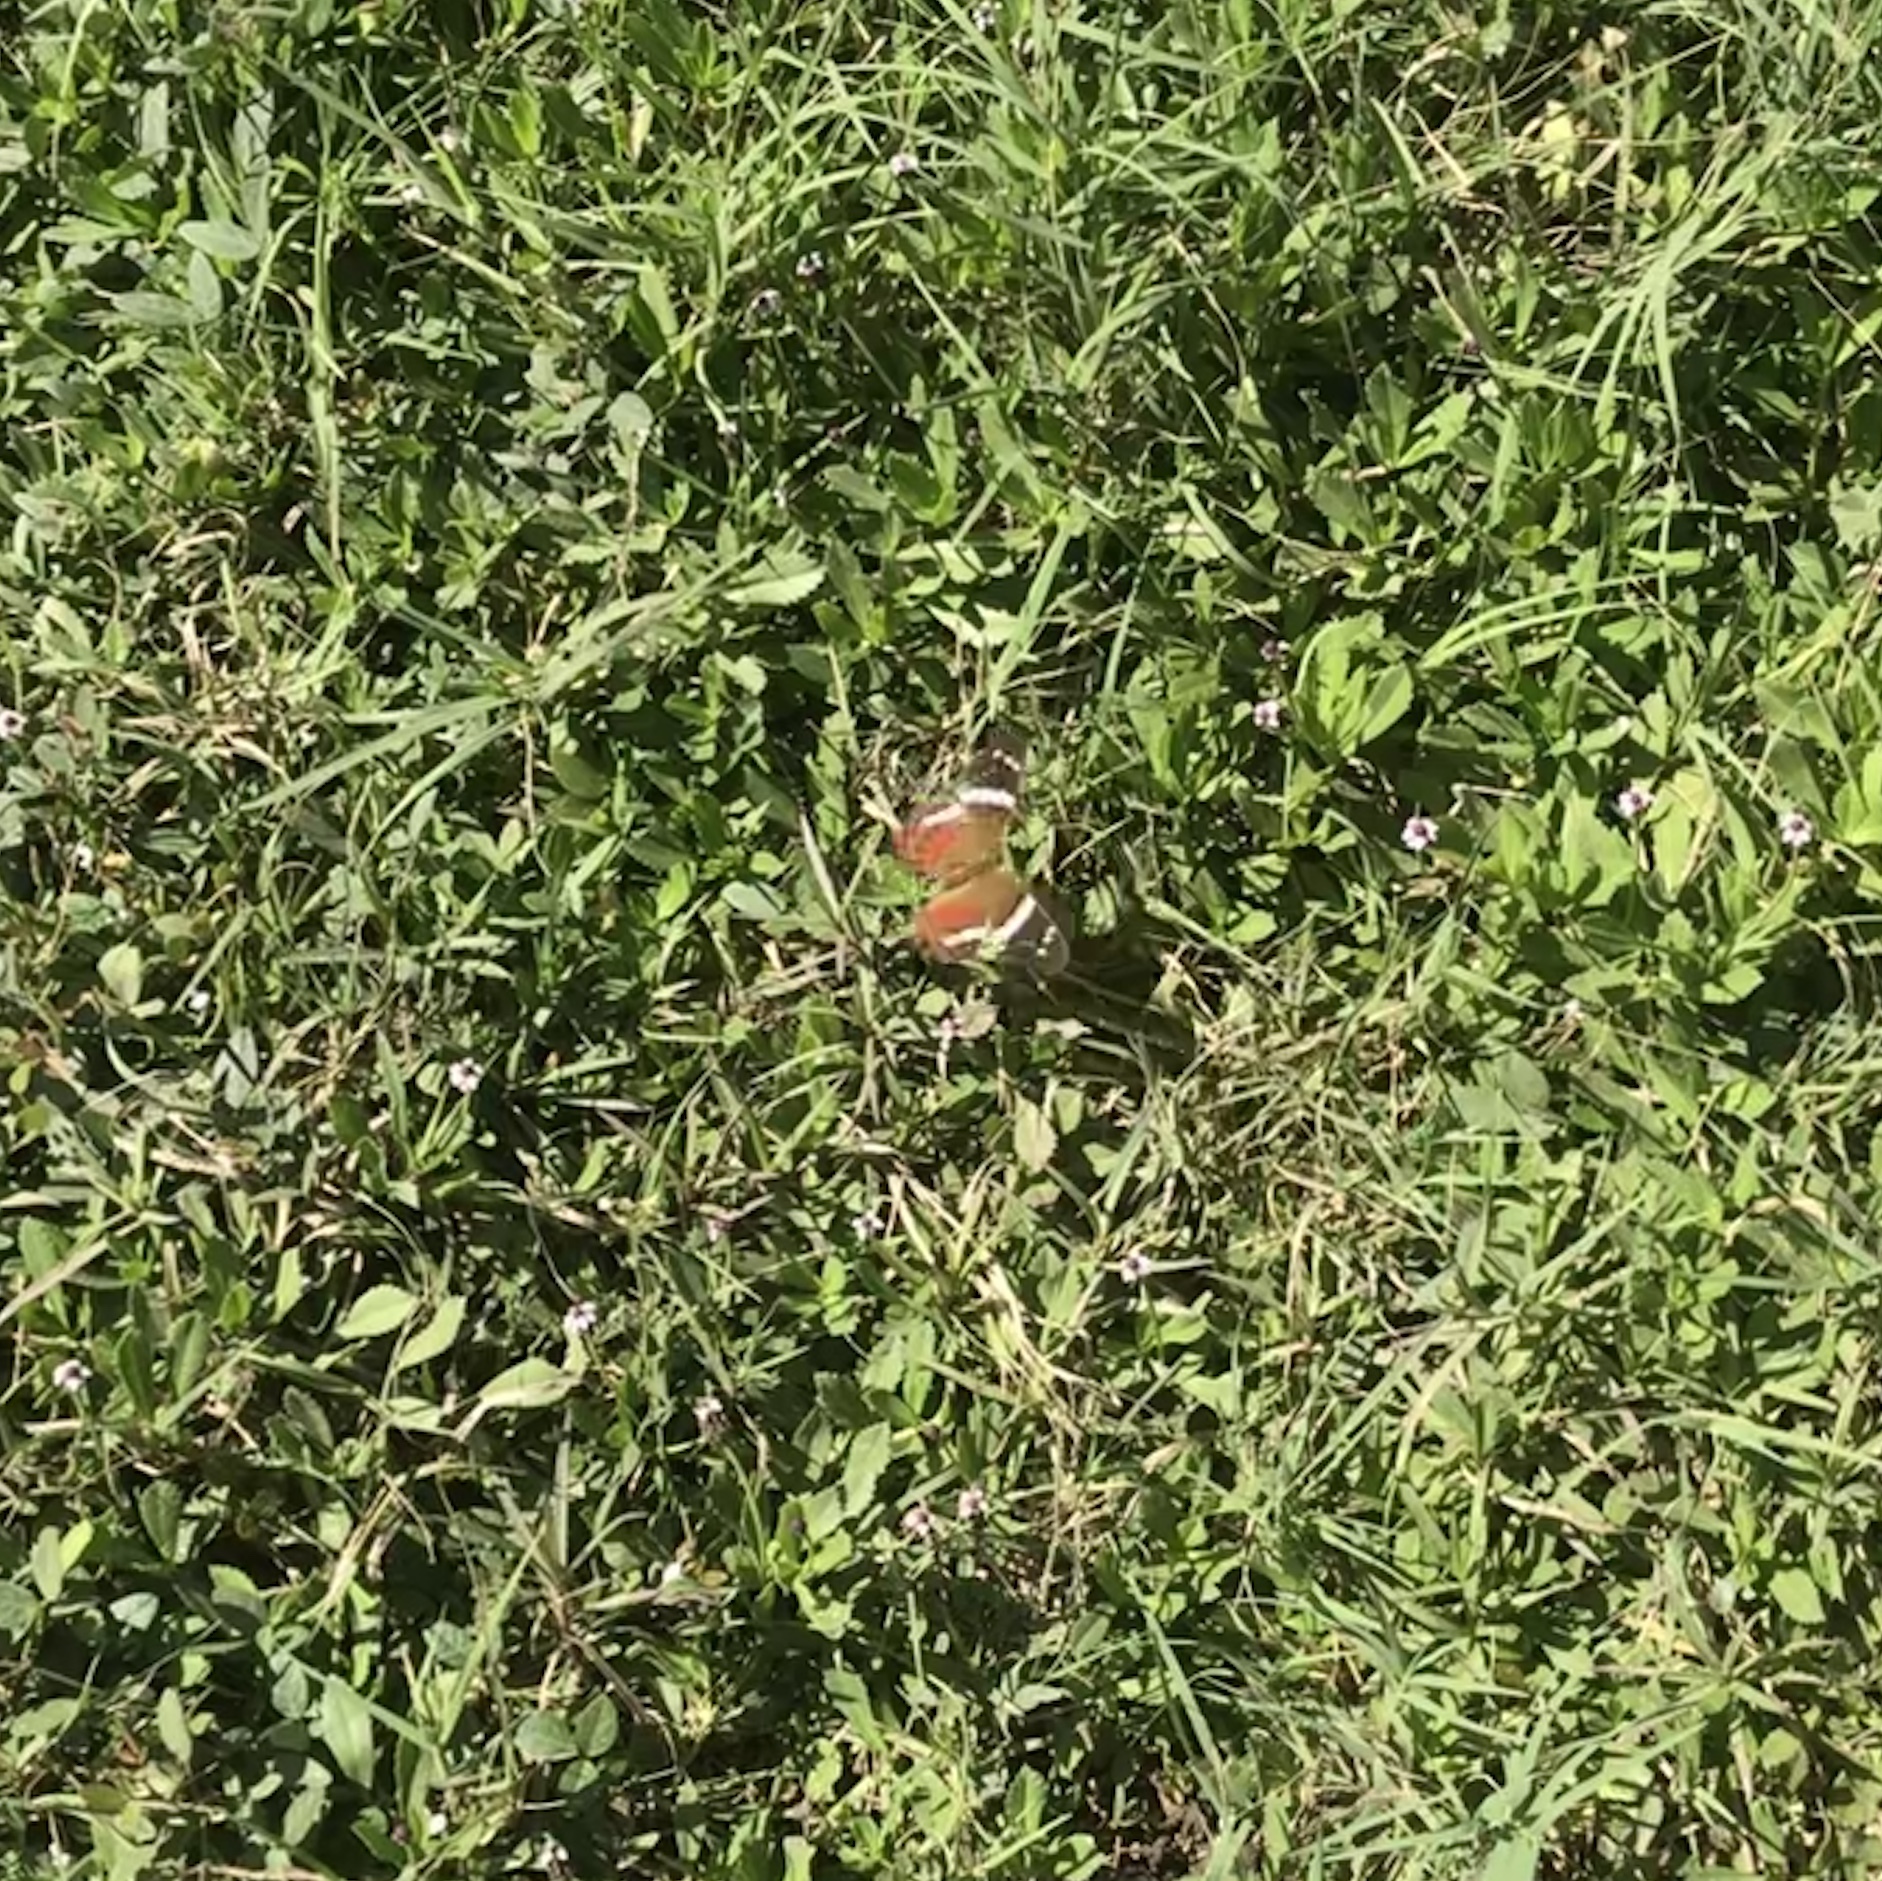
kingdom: Animalia
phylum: Arthropoda
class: Insecta
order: Lepidoptera
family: Nymphalidae
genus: Anartia
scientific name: Anartia fatima
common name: Banded peacock
